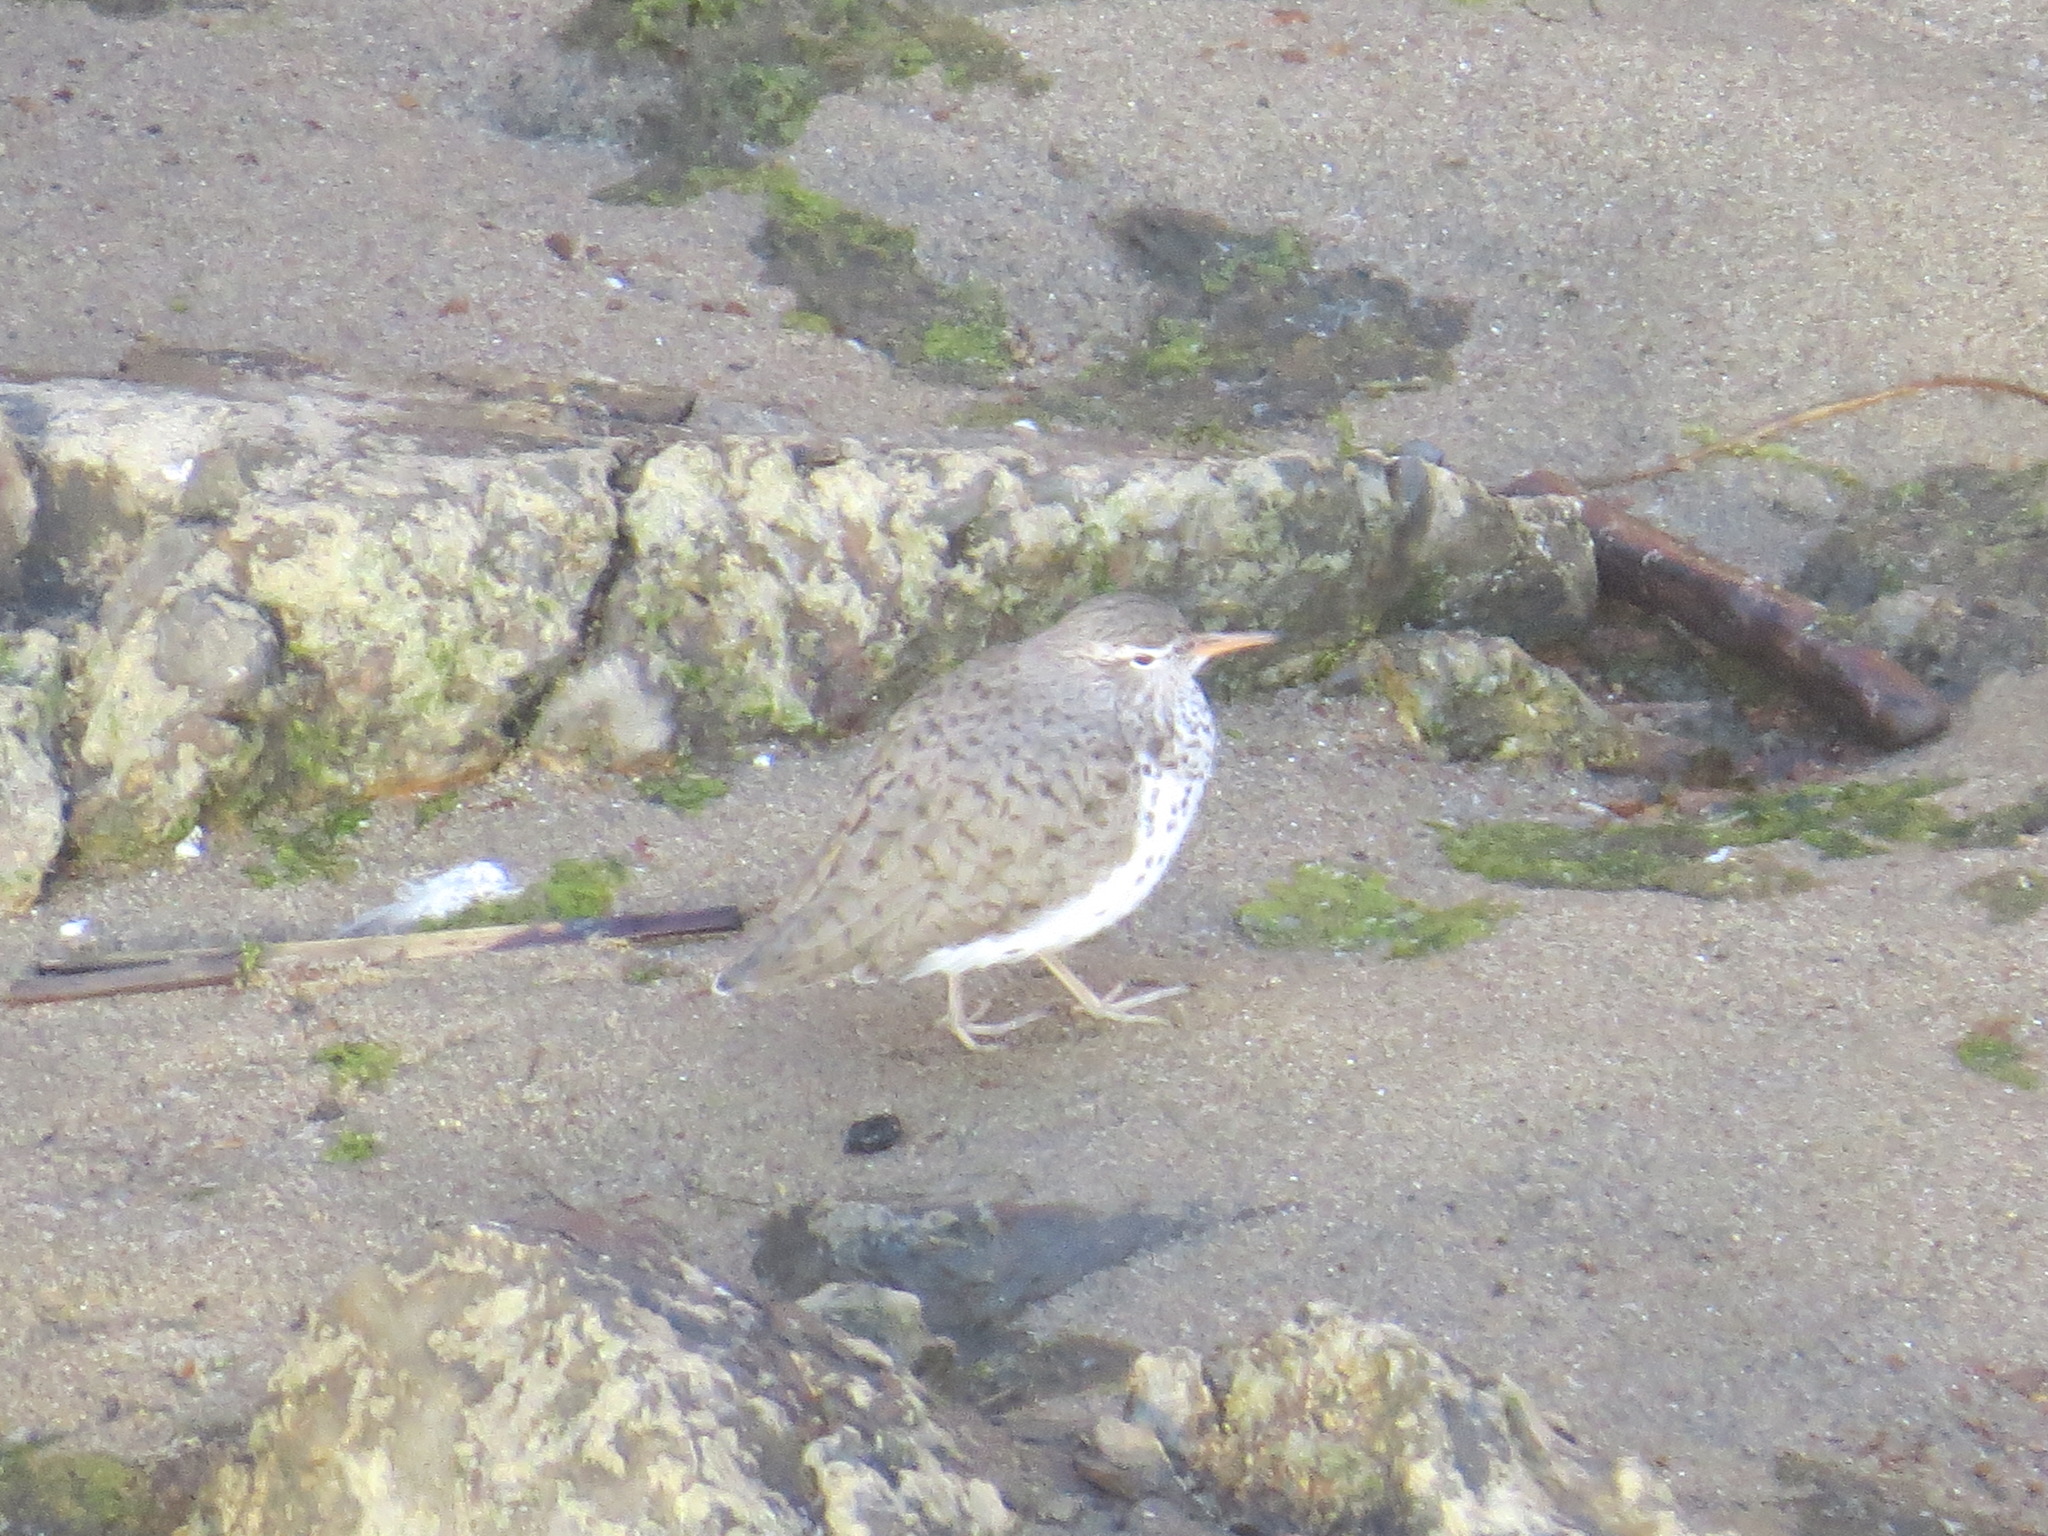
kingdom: Animalia
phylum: Chordata
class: Aves
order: Charadriiformes
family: Scolopacidae
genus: Actitis
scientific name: Actitis macularius
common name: Spotted sandpiper
